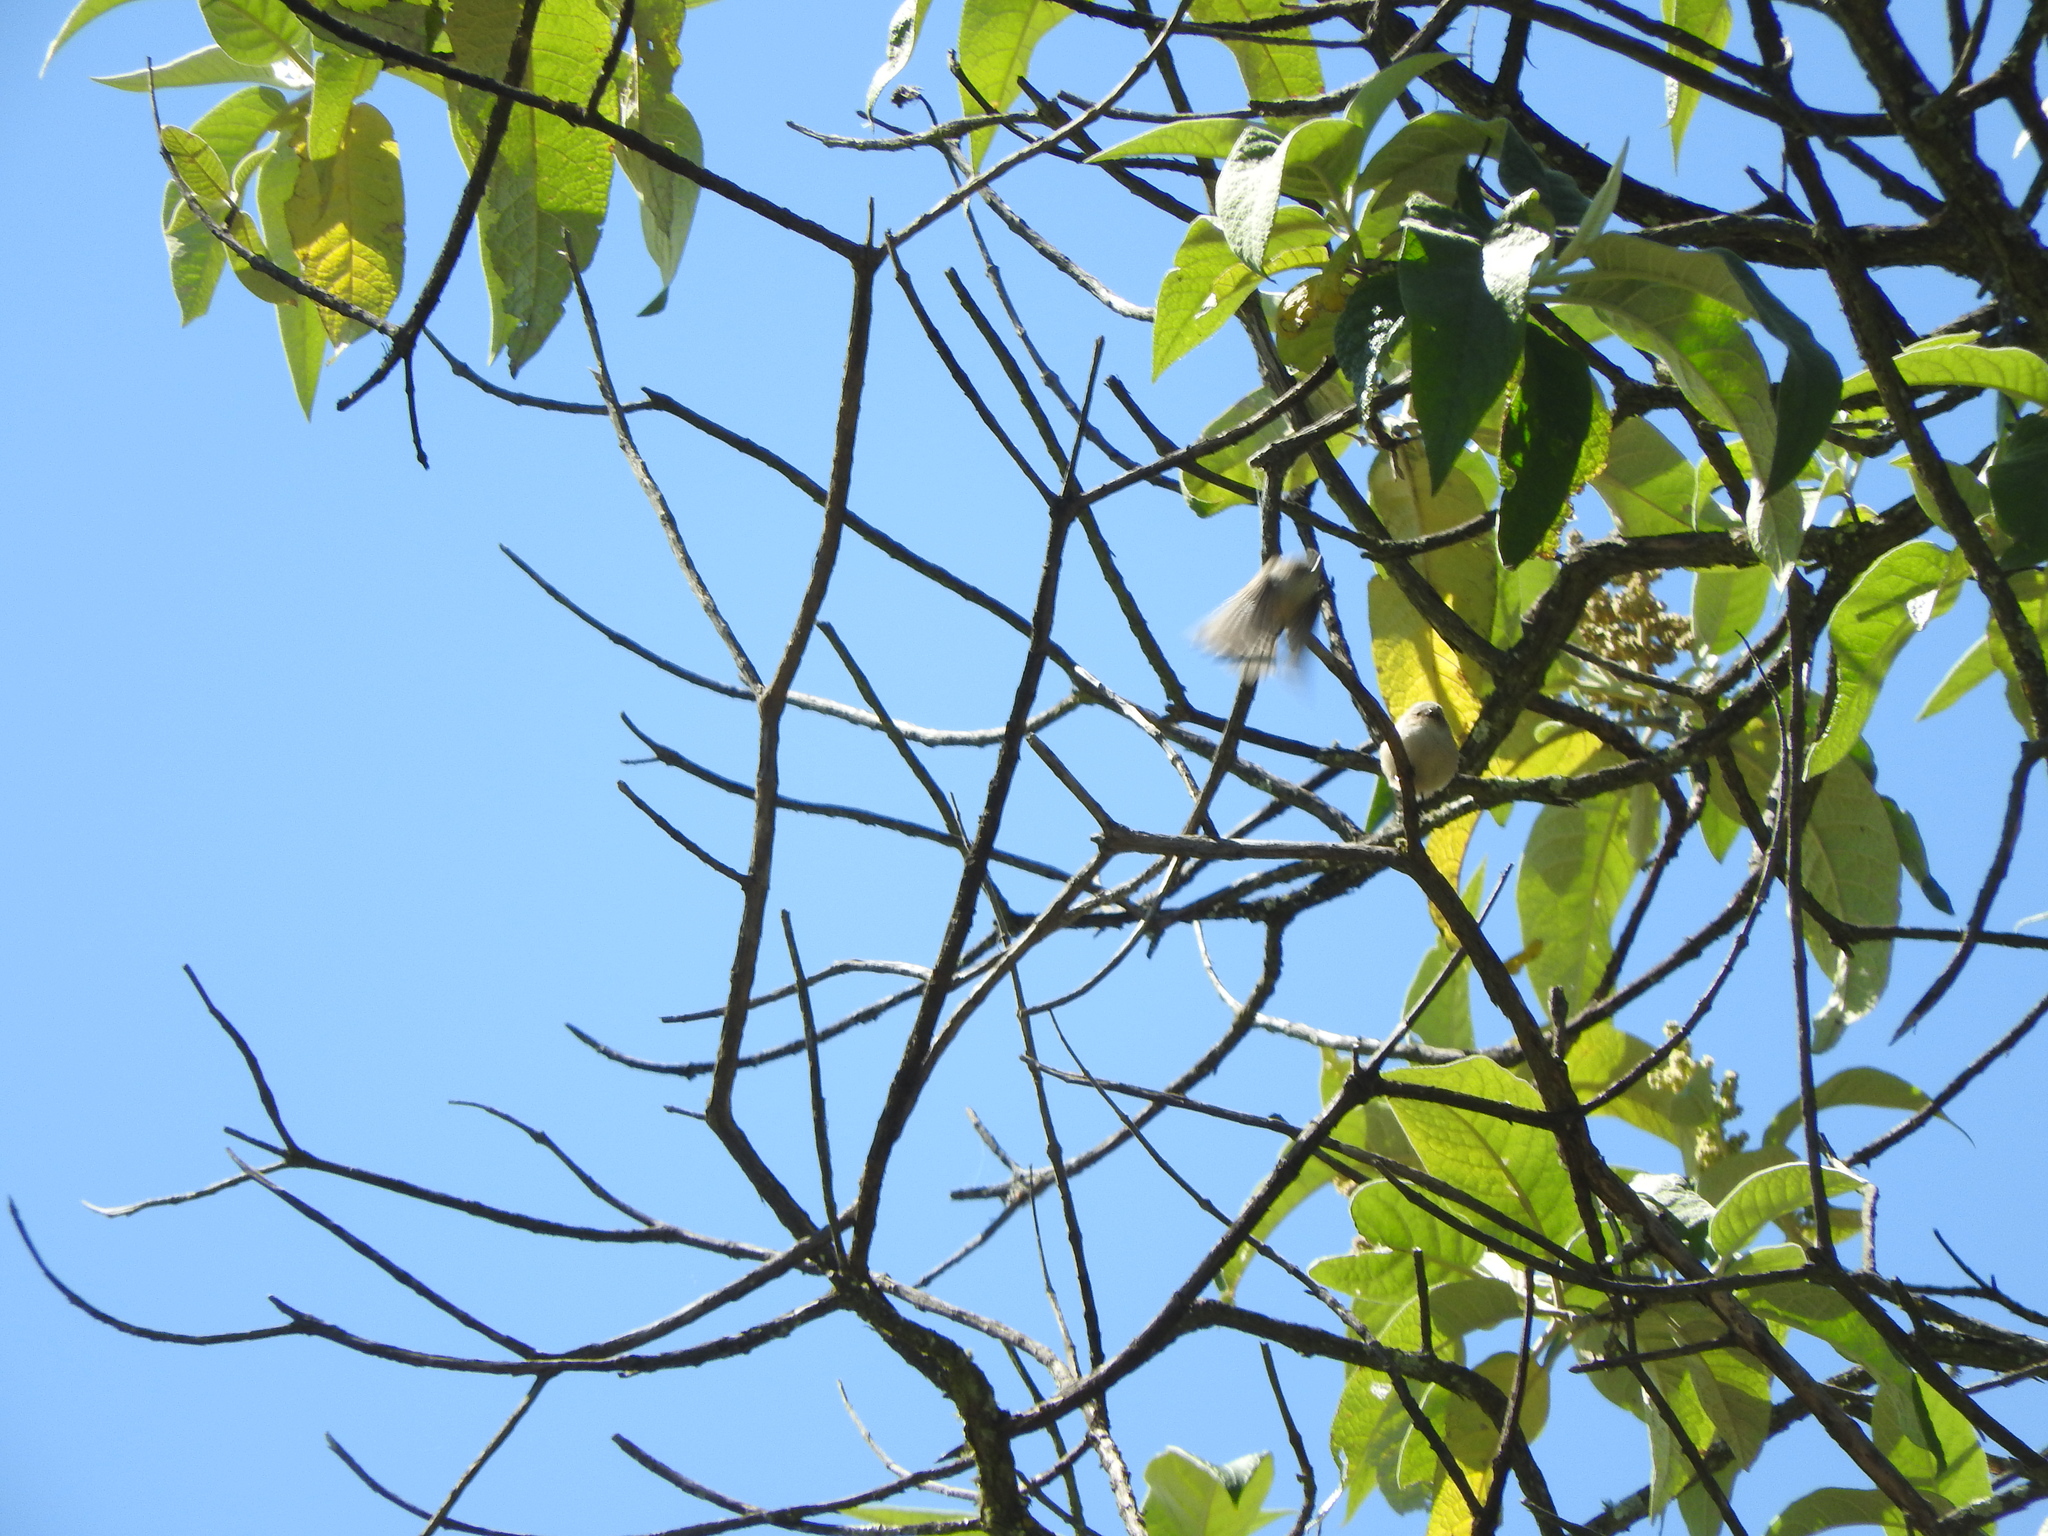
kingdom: Animalia
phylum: Chordata
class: Aves
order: Passeriformes
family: Aegithalidae
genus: Psaltriparus
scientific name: Psaltriparus minimus
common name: American bushtit
